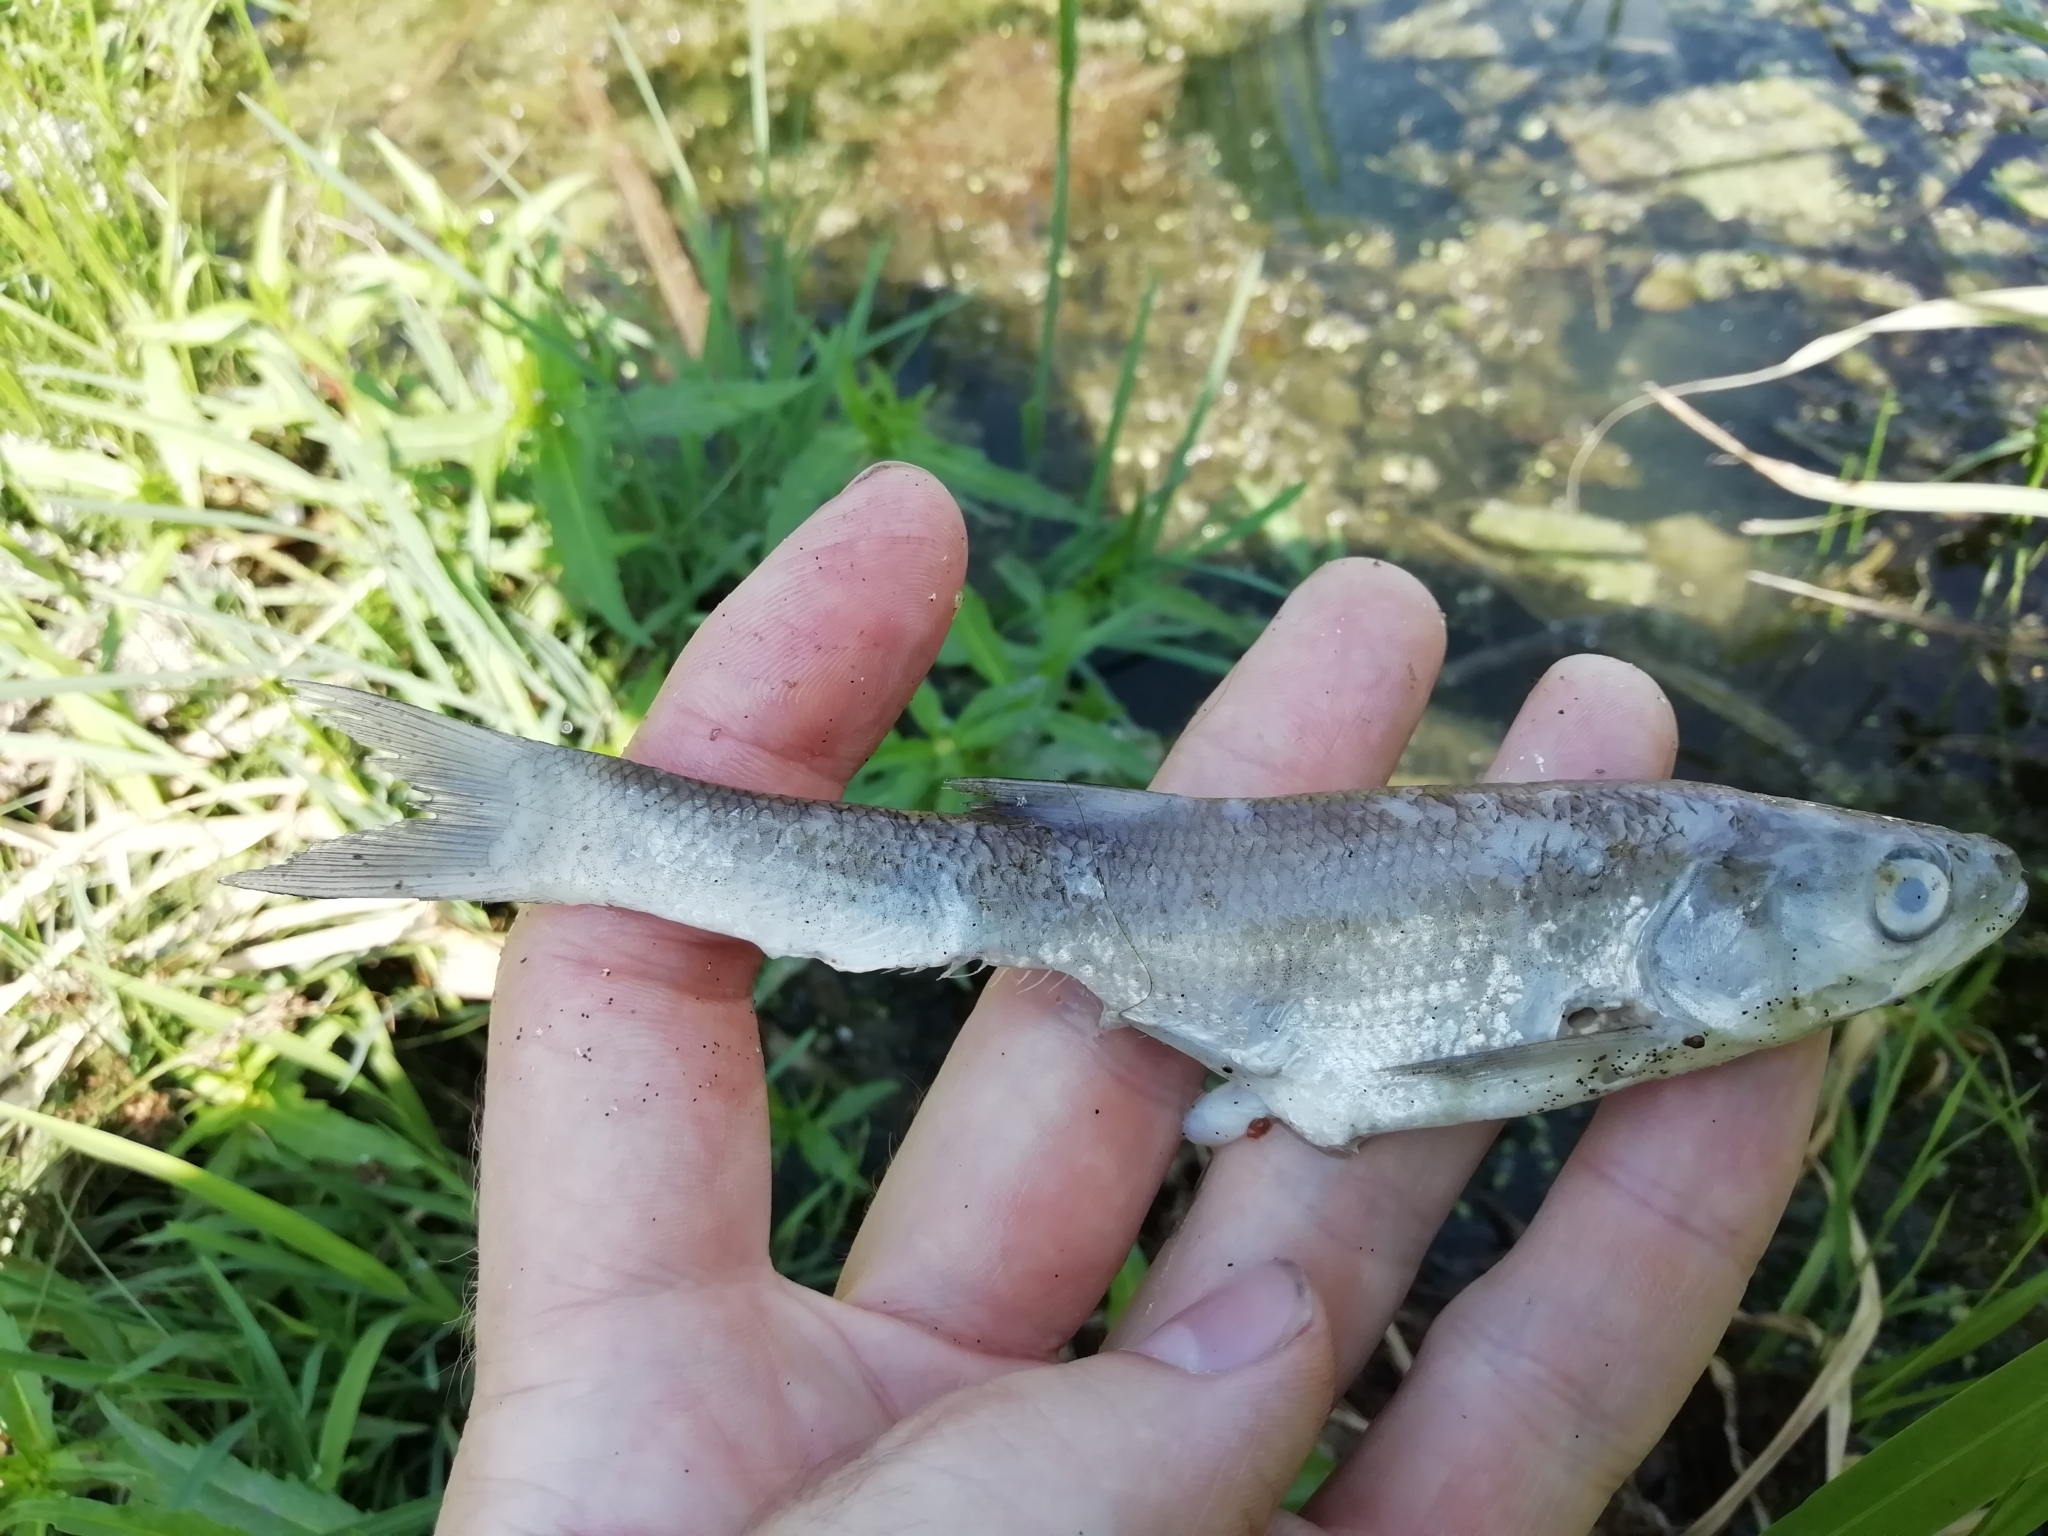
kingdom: Animalia
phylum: Chordata
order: Cypriniformes
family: Cyprinidae
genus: Leuciscus
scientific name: Leuciscus aspius
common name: Asp
